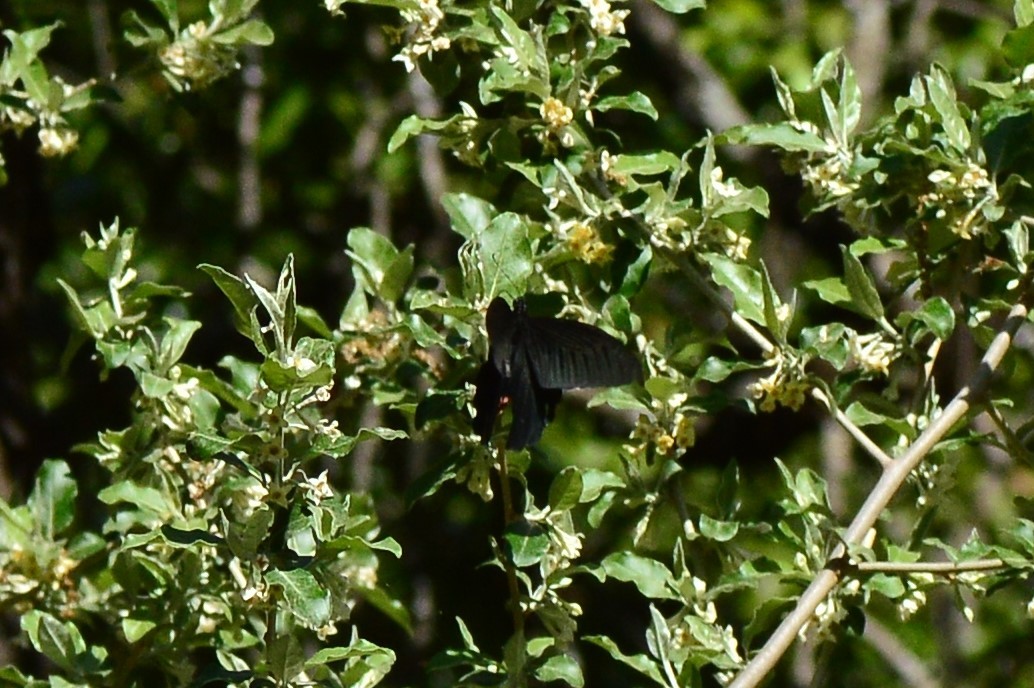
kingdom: Animalia
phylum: Arthropoda
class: Insecta
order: Lepidoptera
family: Papilionidae
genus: Papilio
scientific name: Papilio protenor
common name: Spangle
